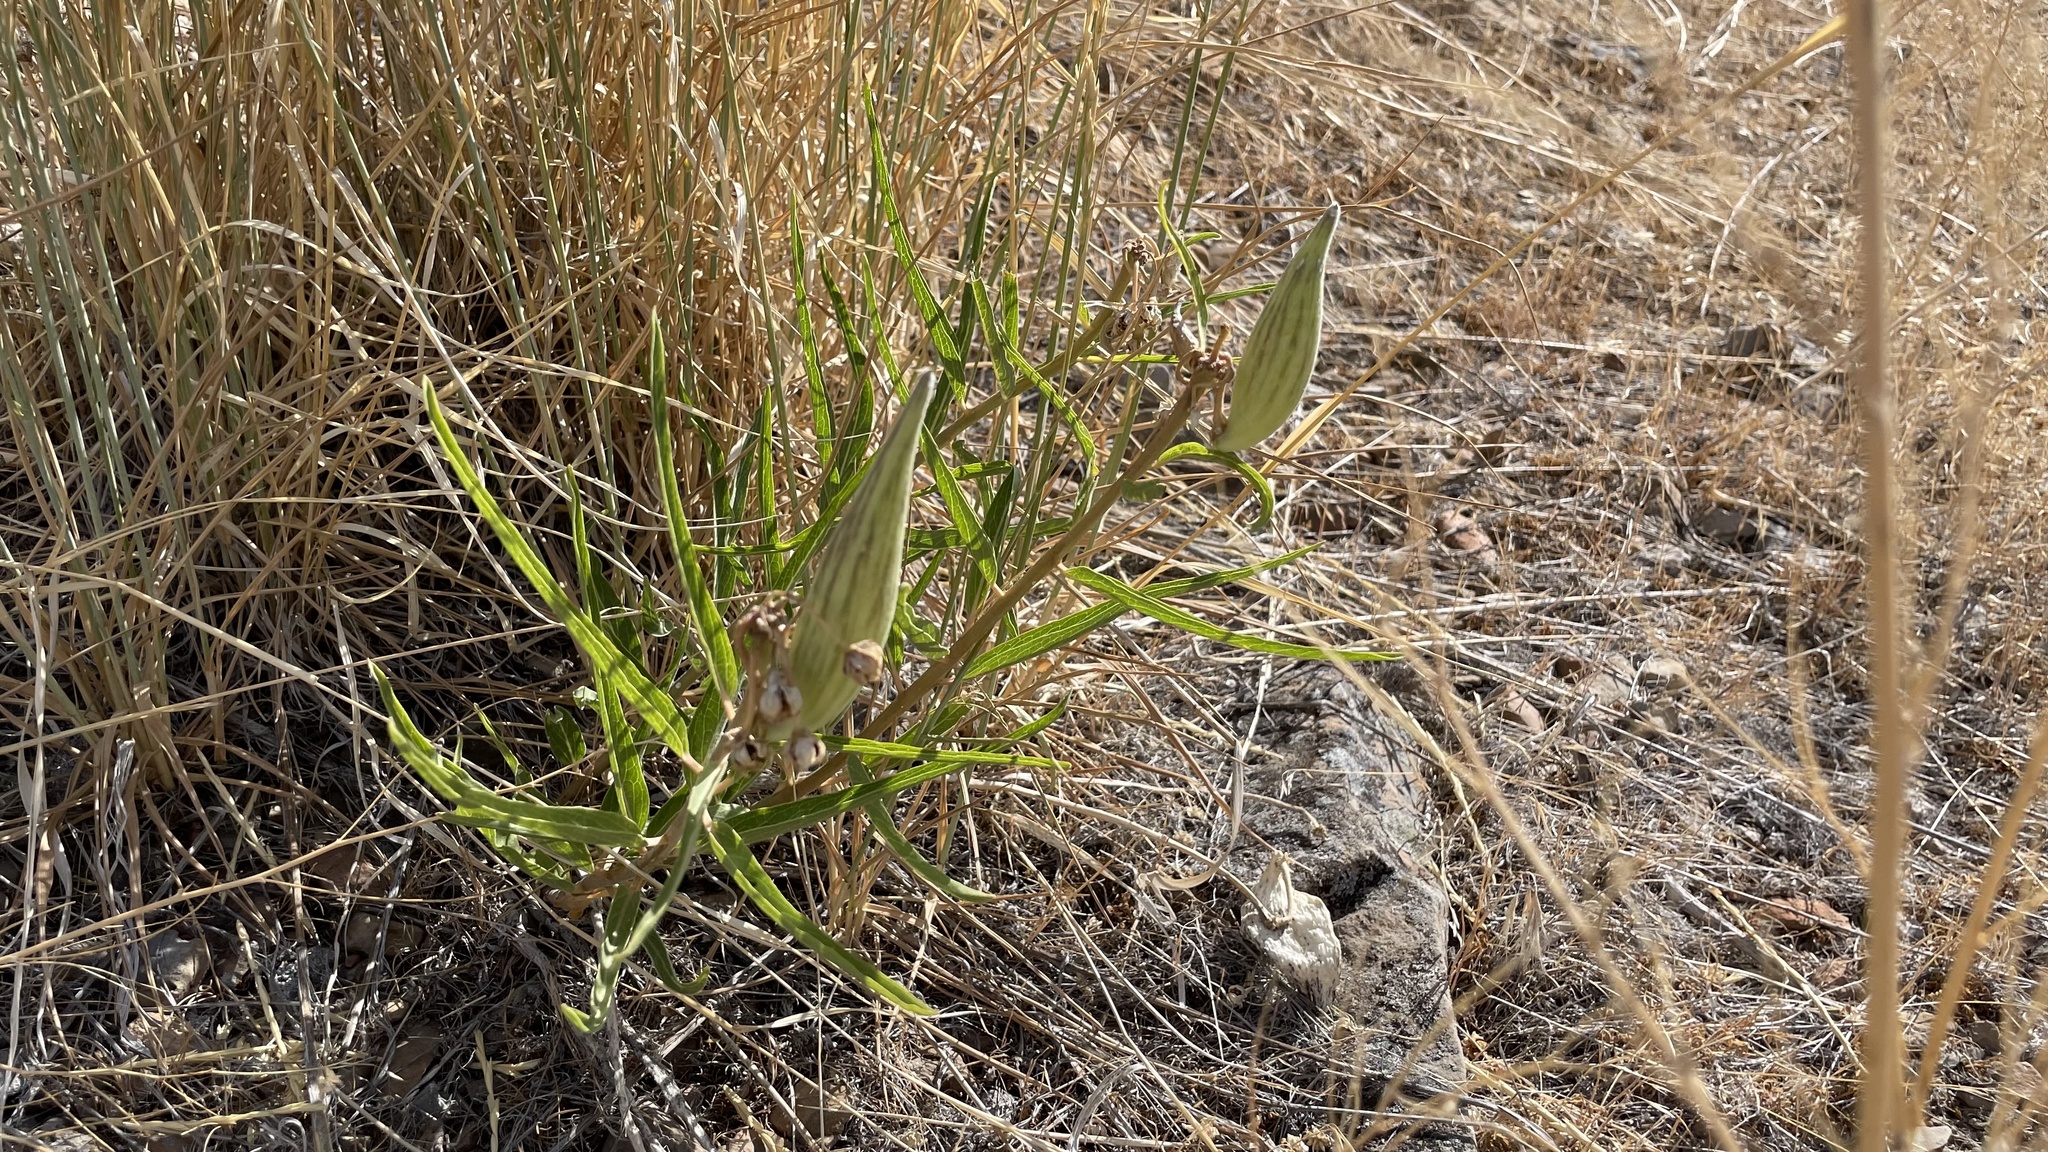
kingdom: Plantae
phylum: Tracheophyta
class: Magnoliopsida
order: Gentianales
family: Apocynaceae
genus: Asclepias
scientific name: Asclepias asperula
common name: Antelope horns
